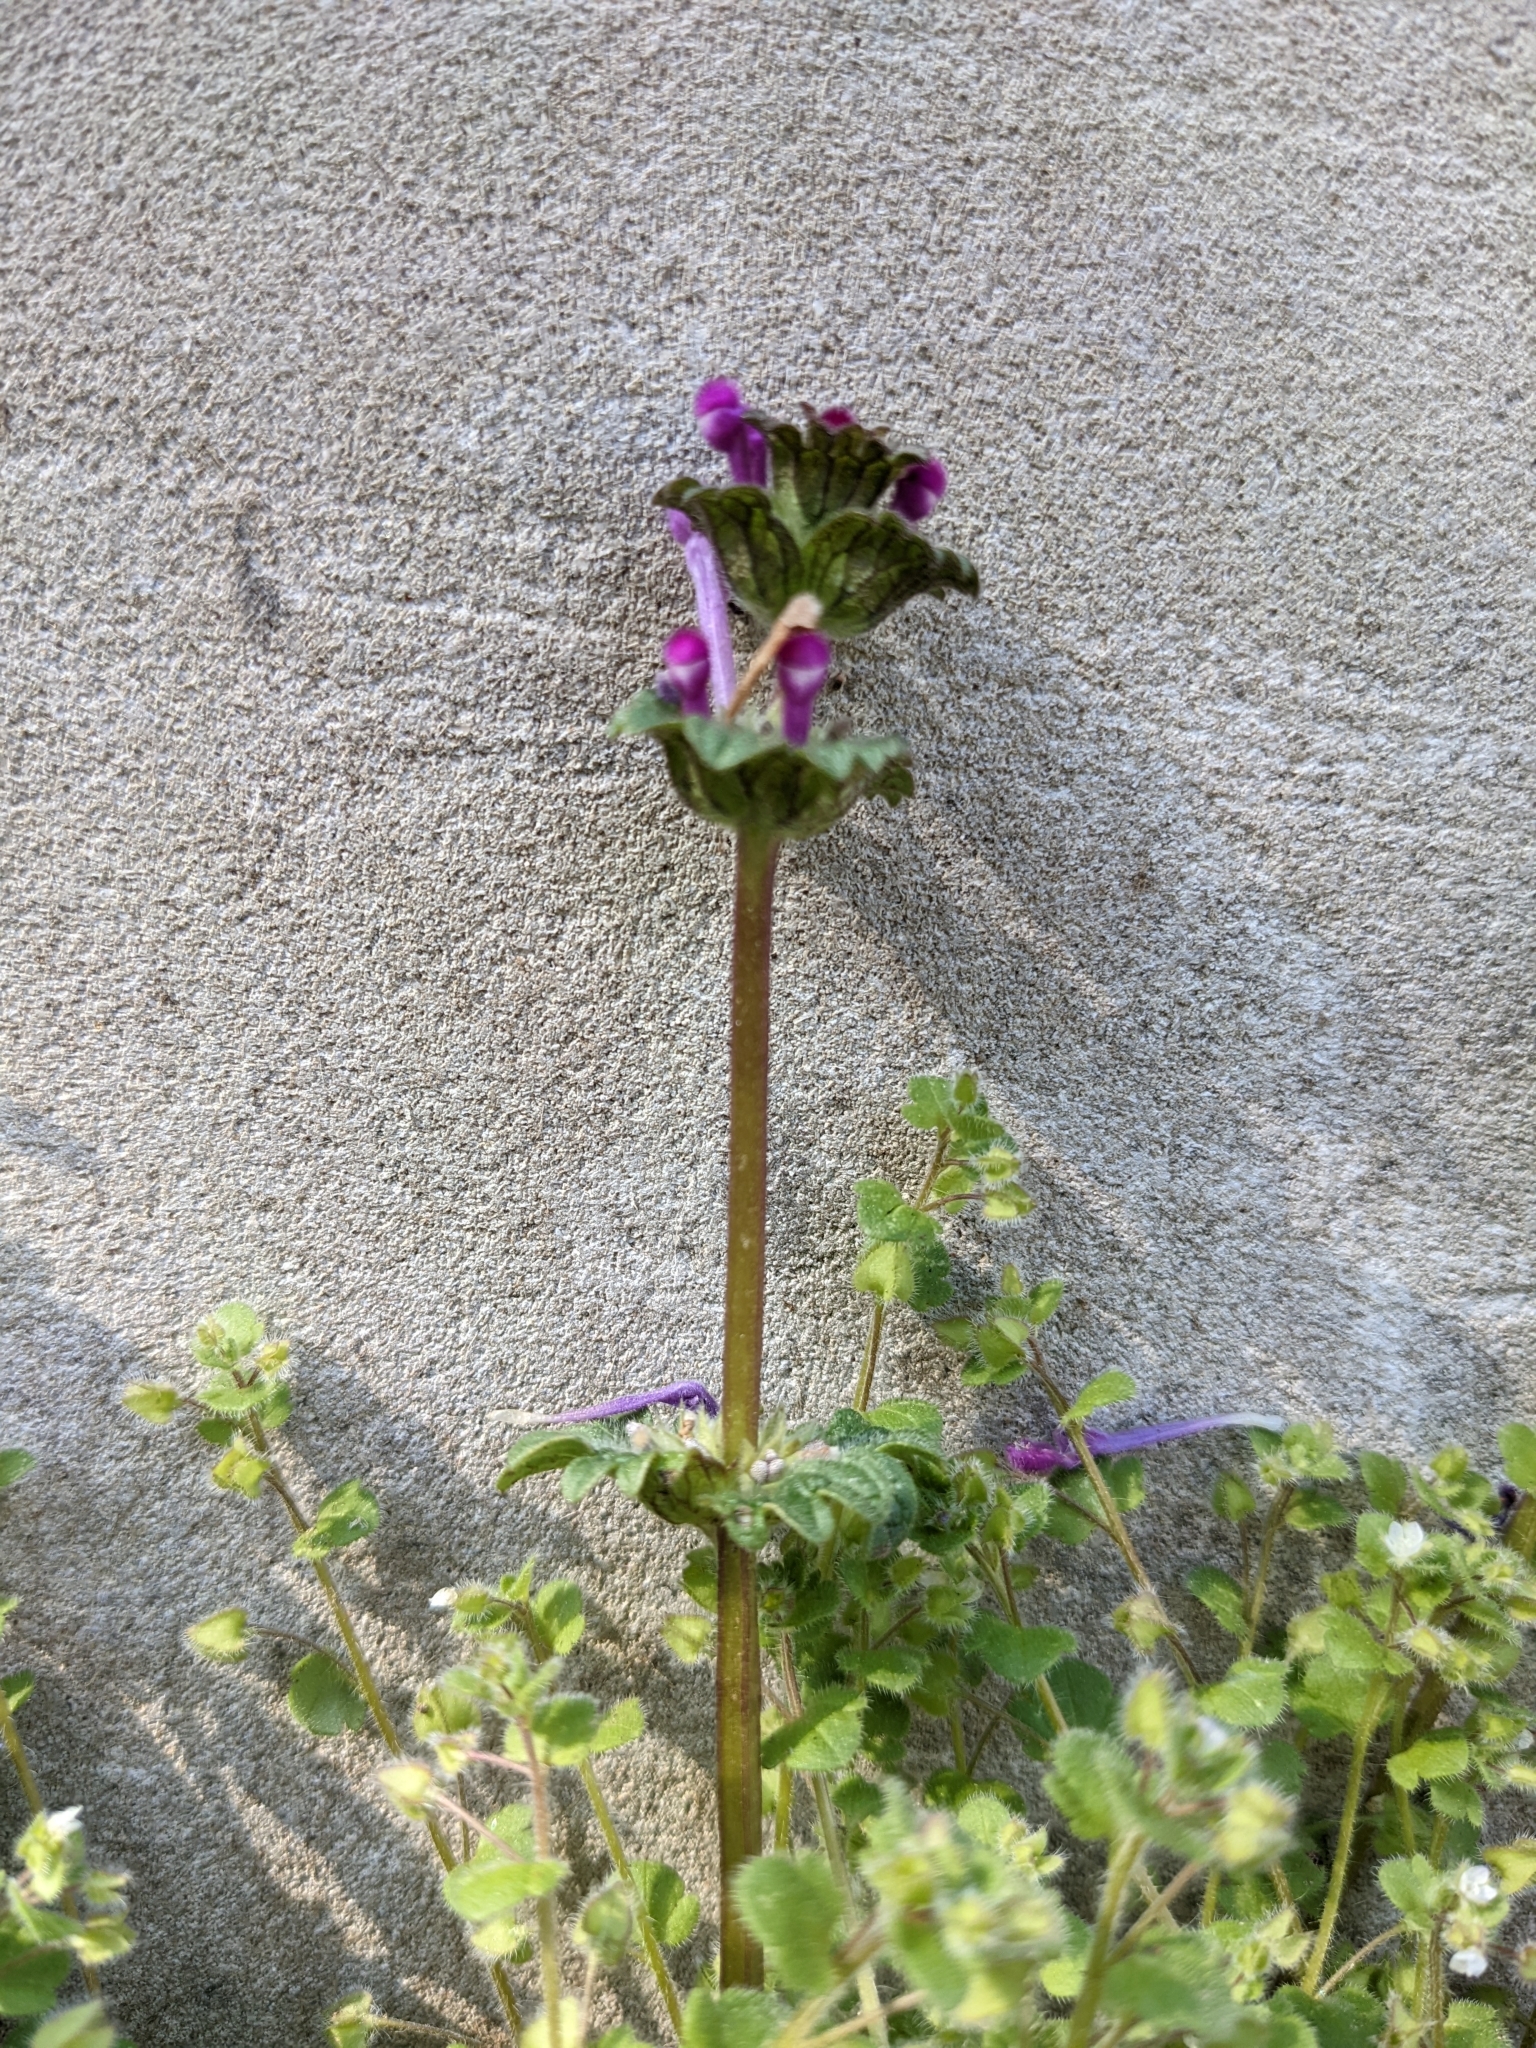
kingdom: Plantae
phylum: Tracheophyta
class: Magnoliopsida
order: Lamiales
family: Lamiaceae
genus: Lamium
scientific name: Lamium amplexicaule
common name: Henbit dead-nettle
